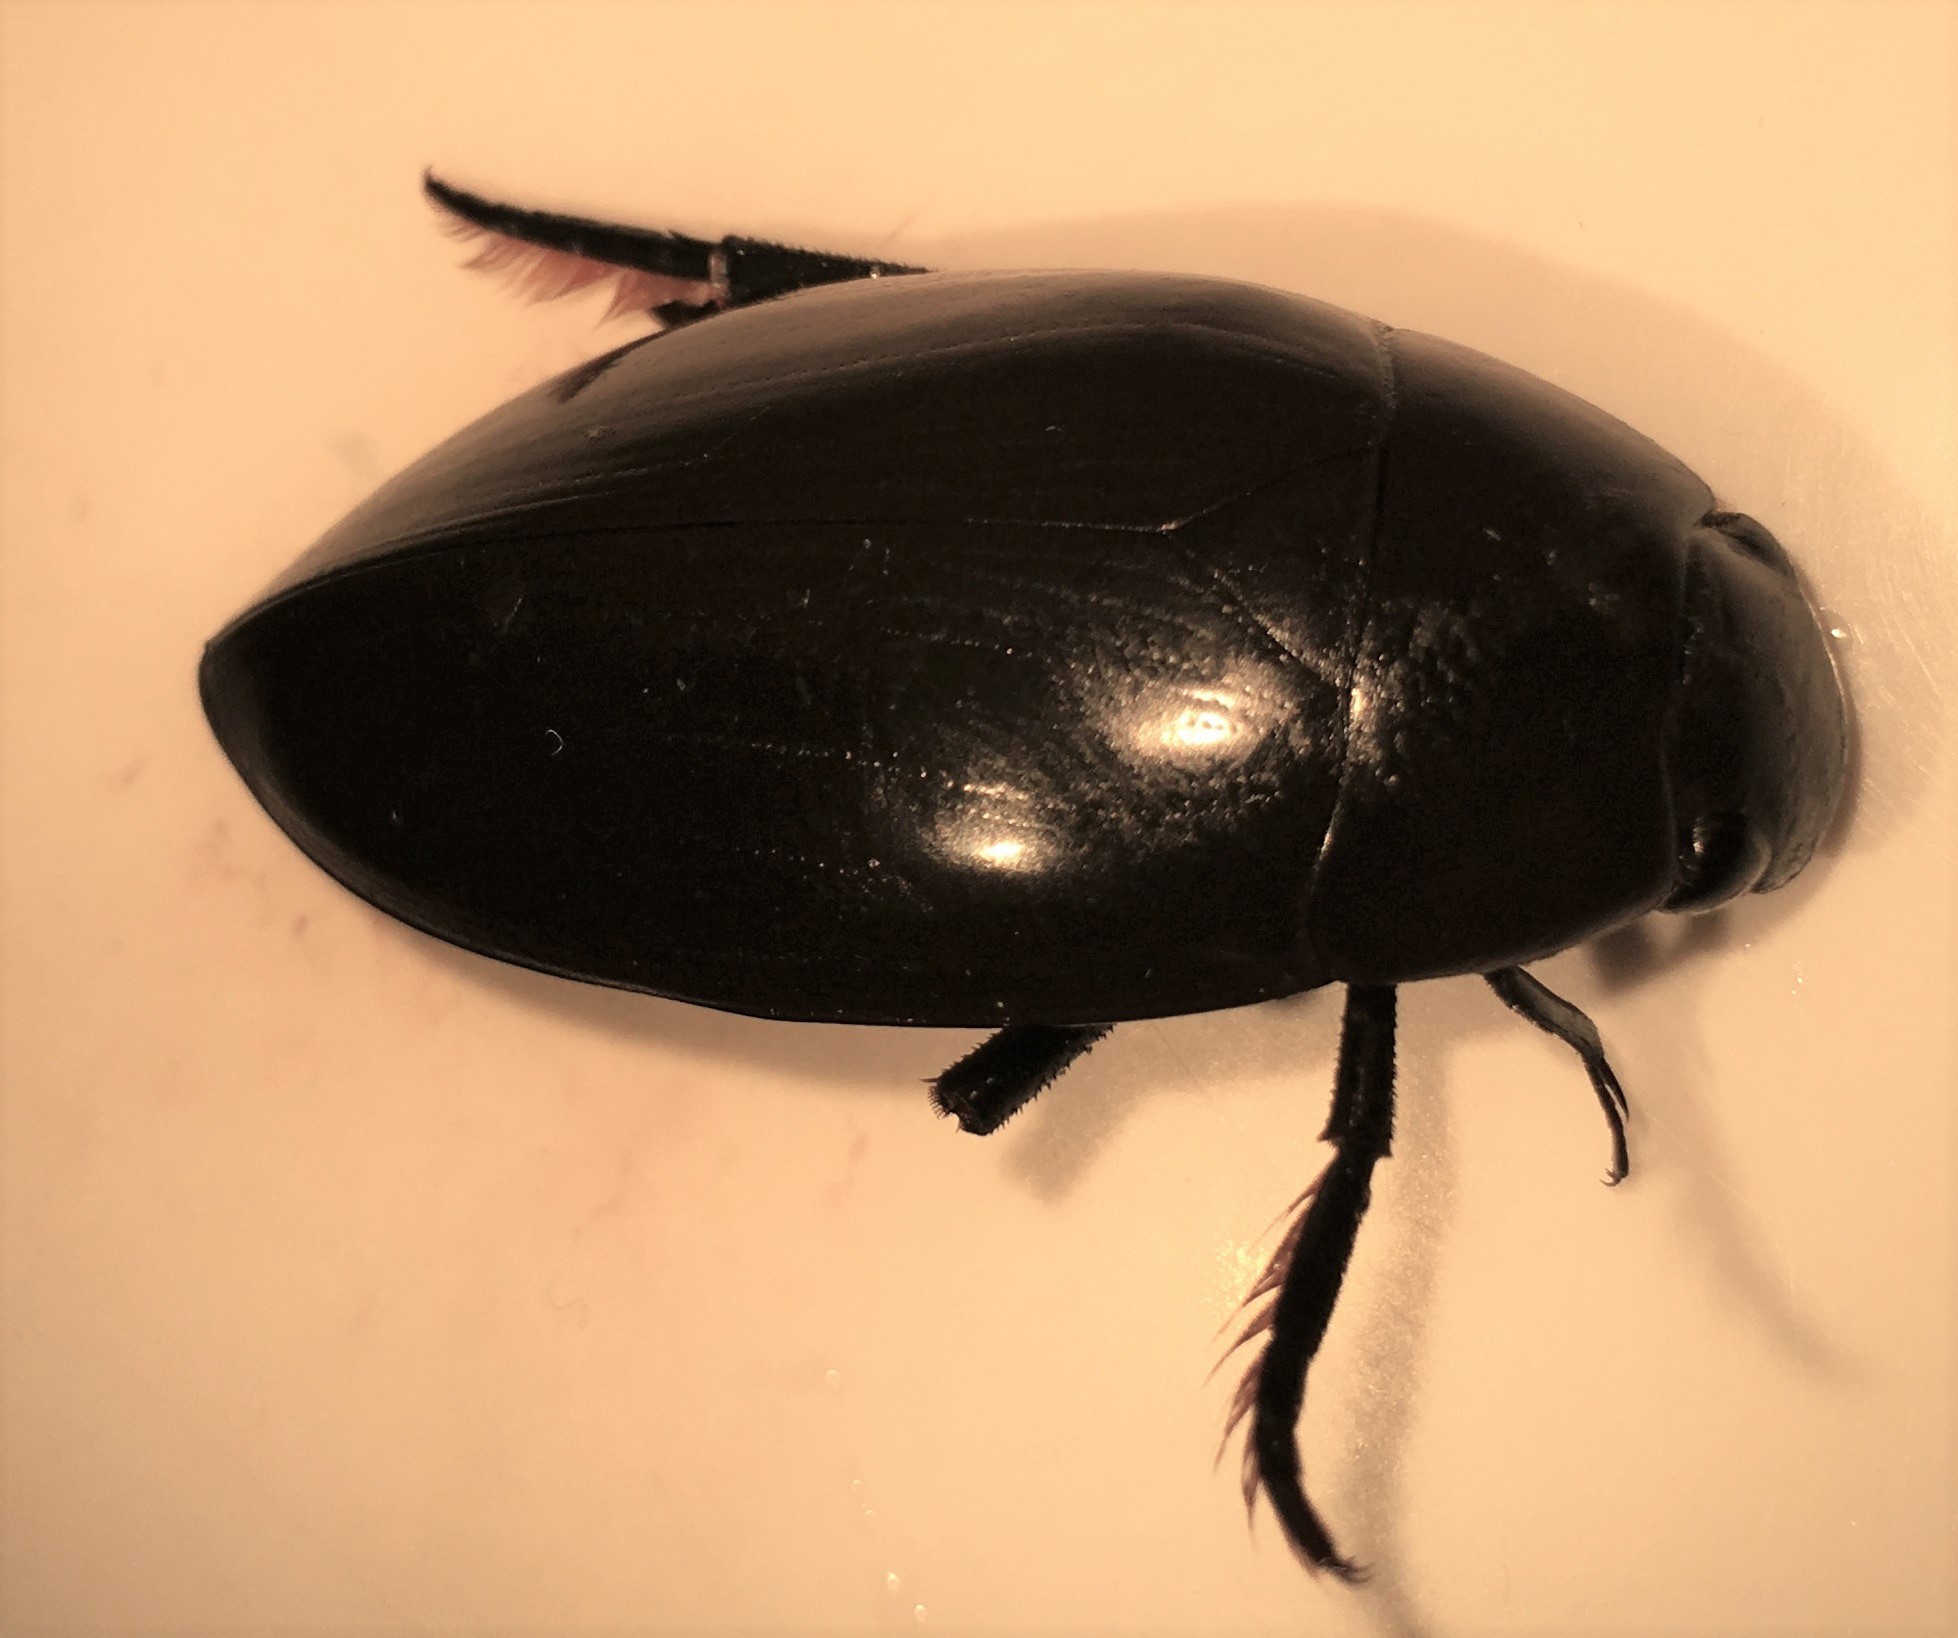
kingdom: Animalia
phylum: Arthropoda
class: Insecta
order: Coleoptera
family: Hydrophilidae
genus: Hydrophilus
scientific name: Hydrophilus insularis
